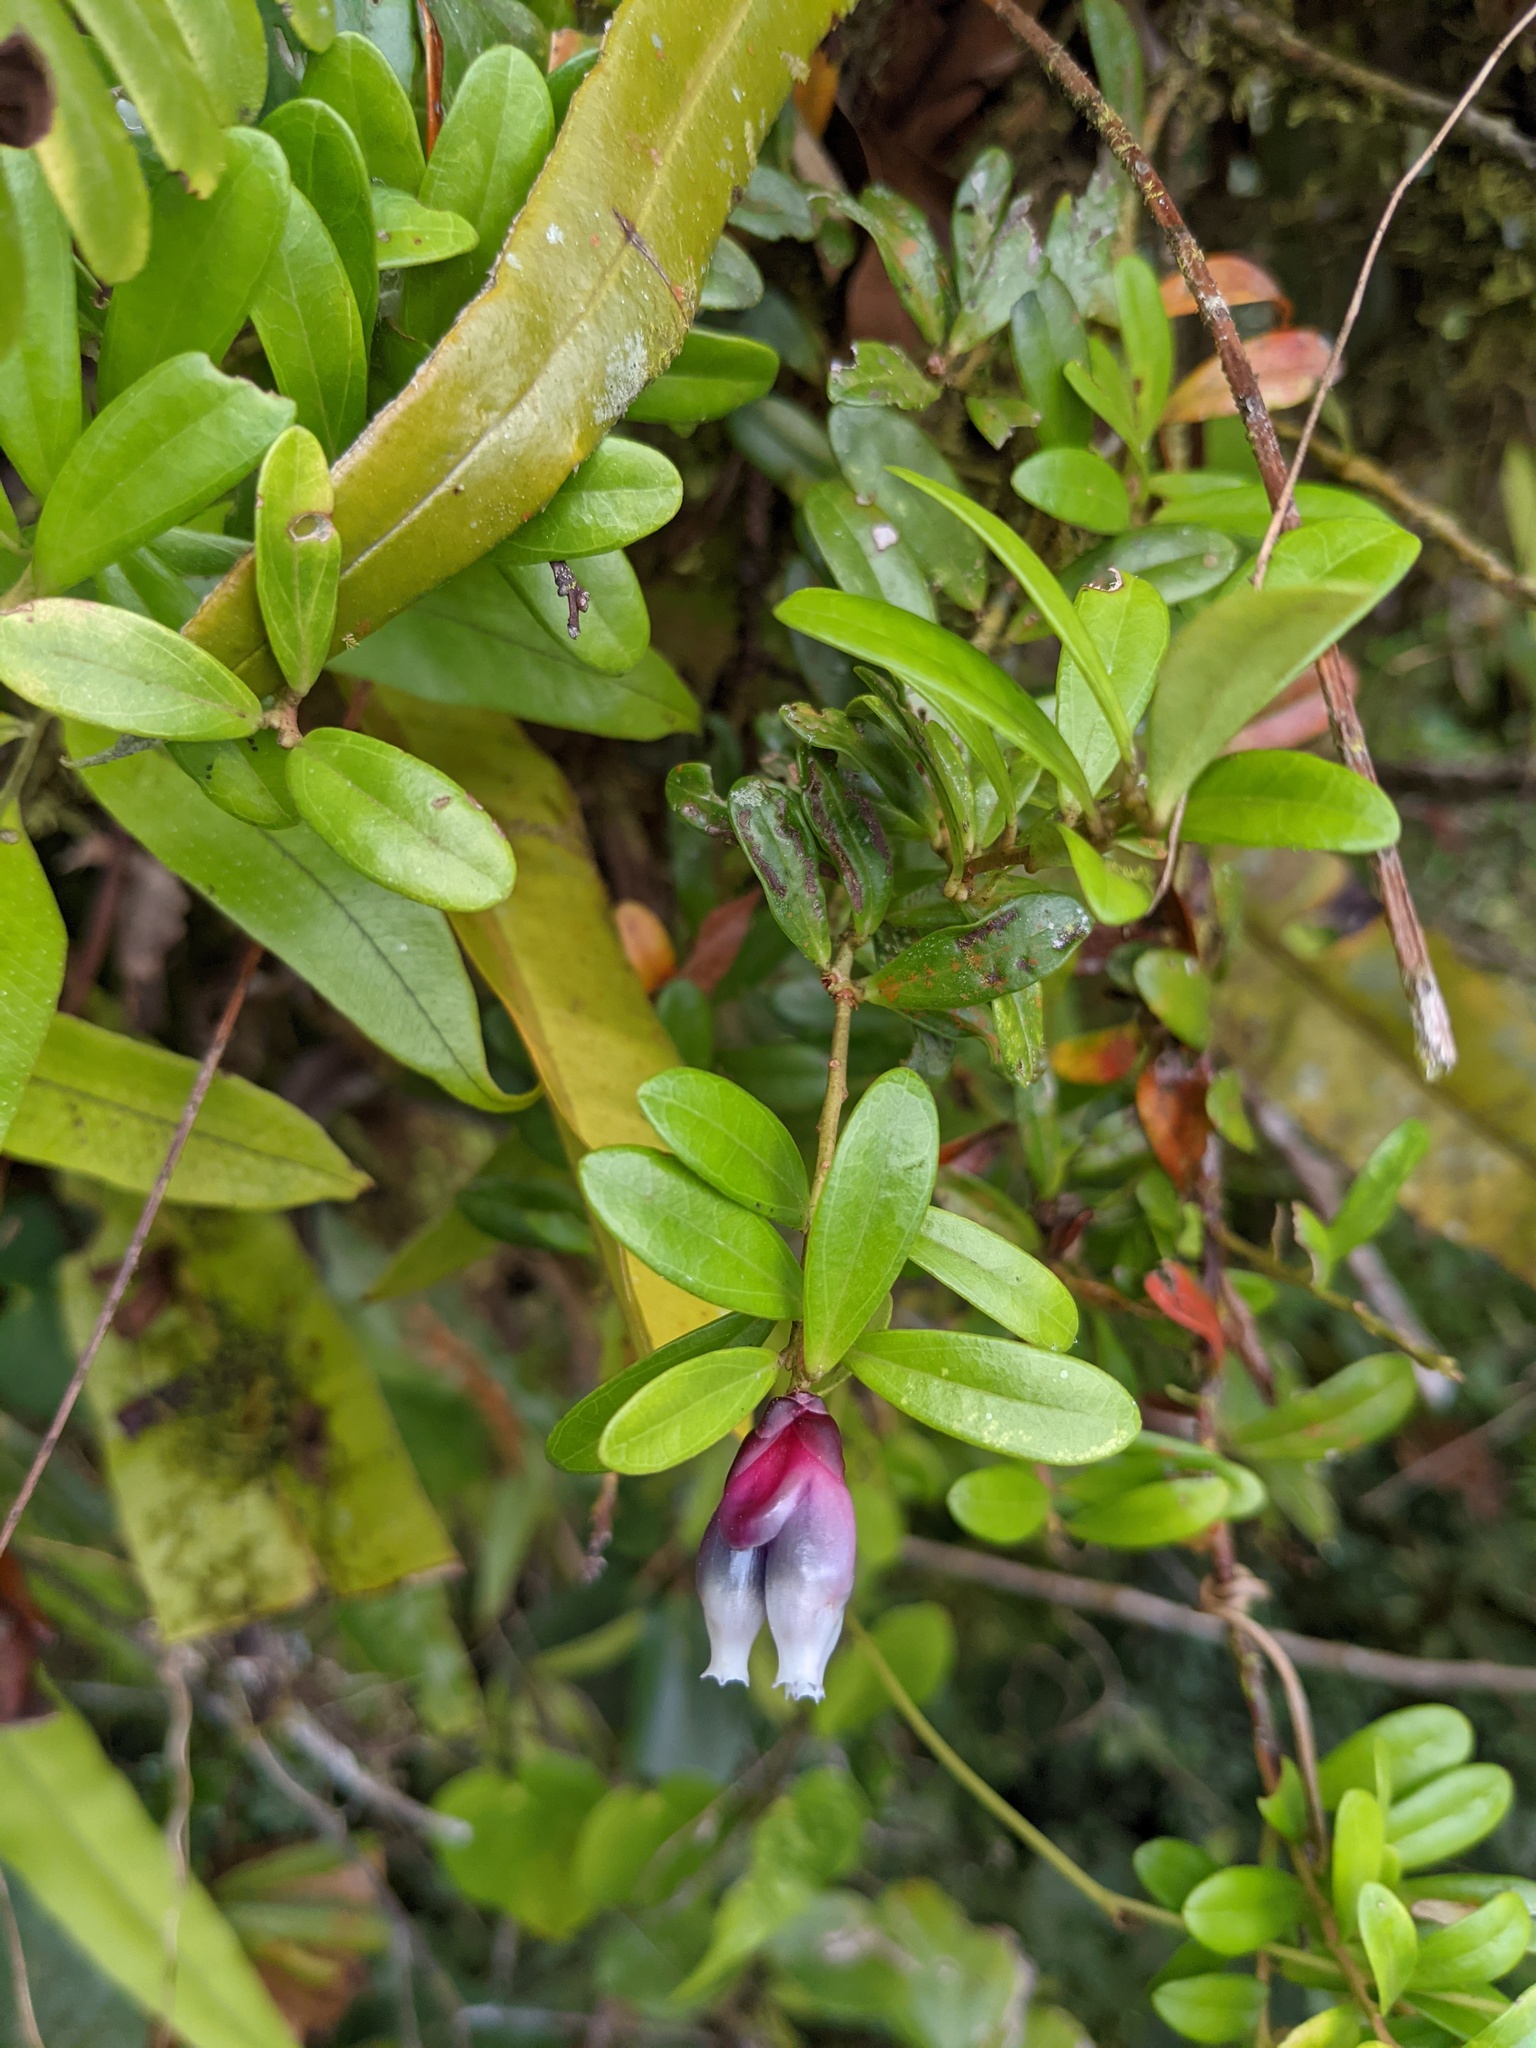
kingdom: Plantae
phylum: Tracheophyta
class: Magnoliopsida
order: Ericales
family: Ericaceae
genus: Cavendishia
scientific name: Cavendishia capitulata
